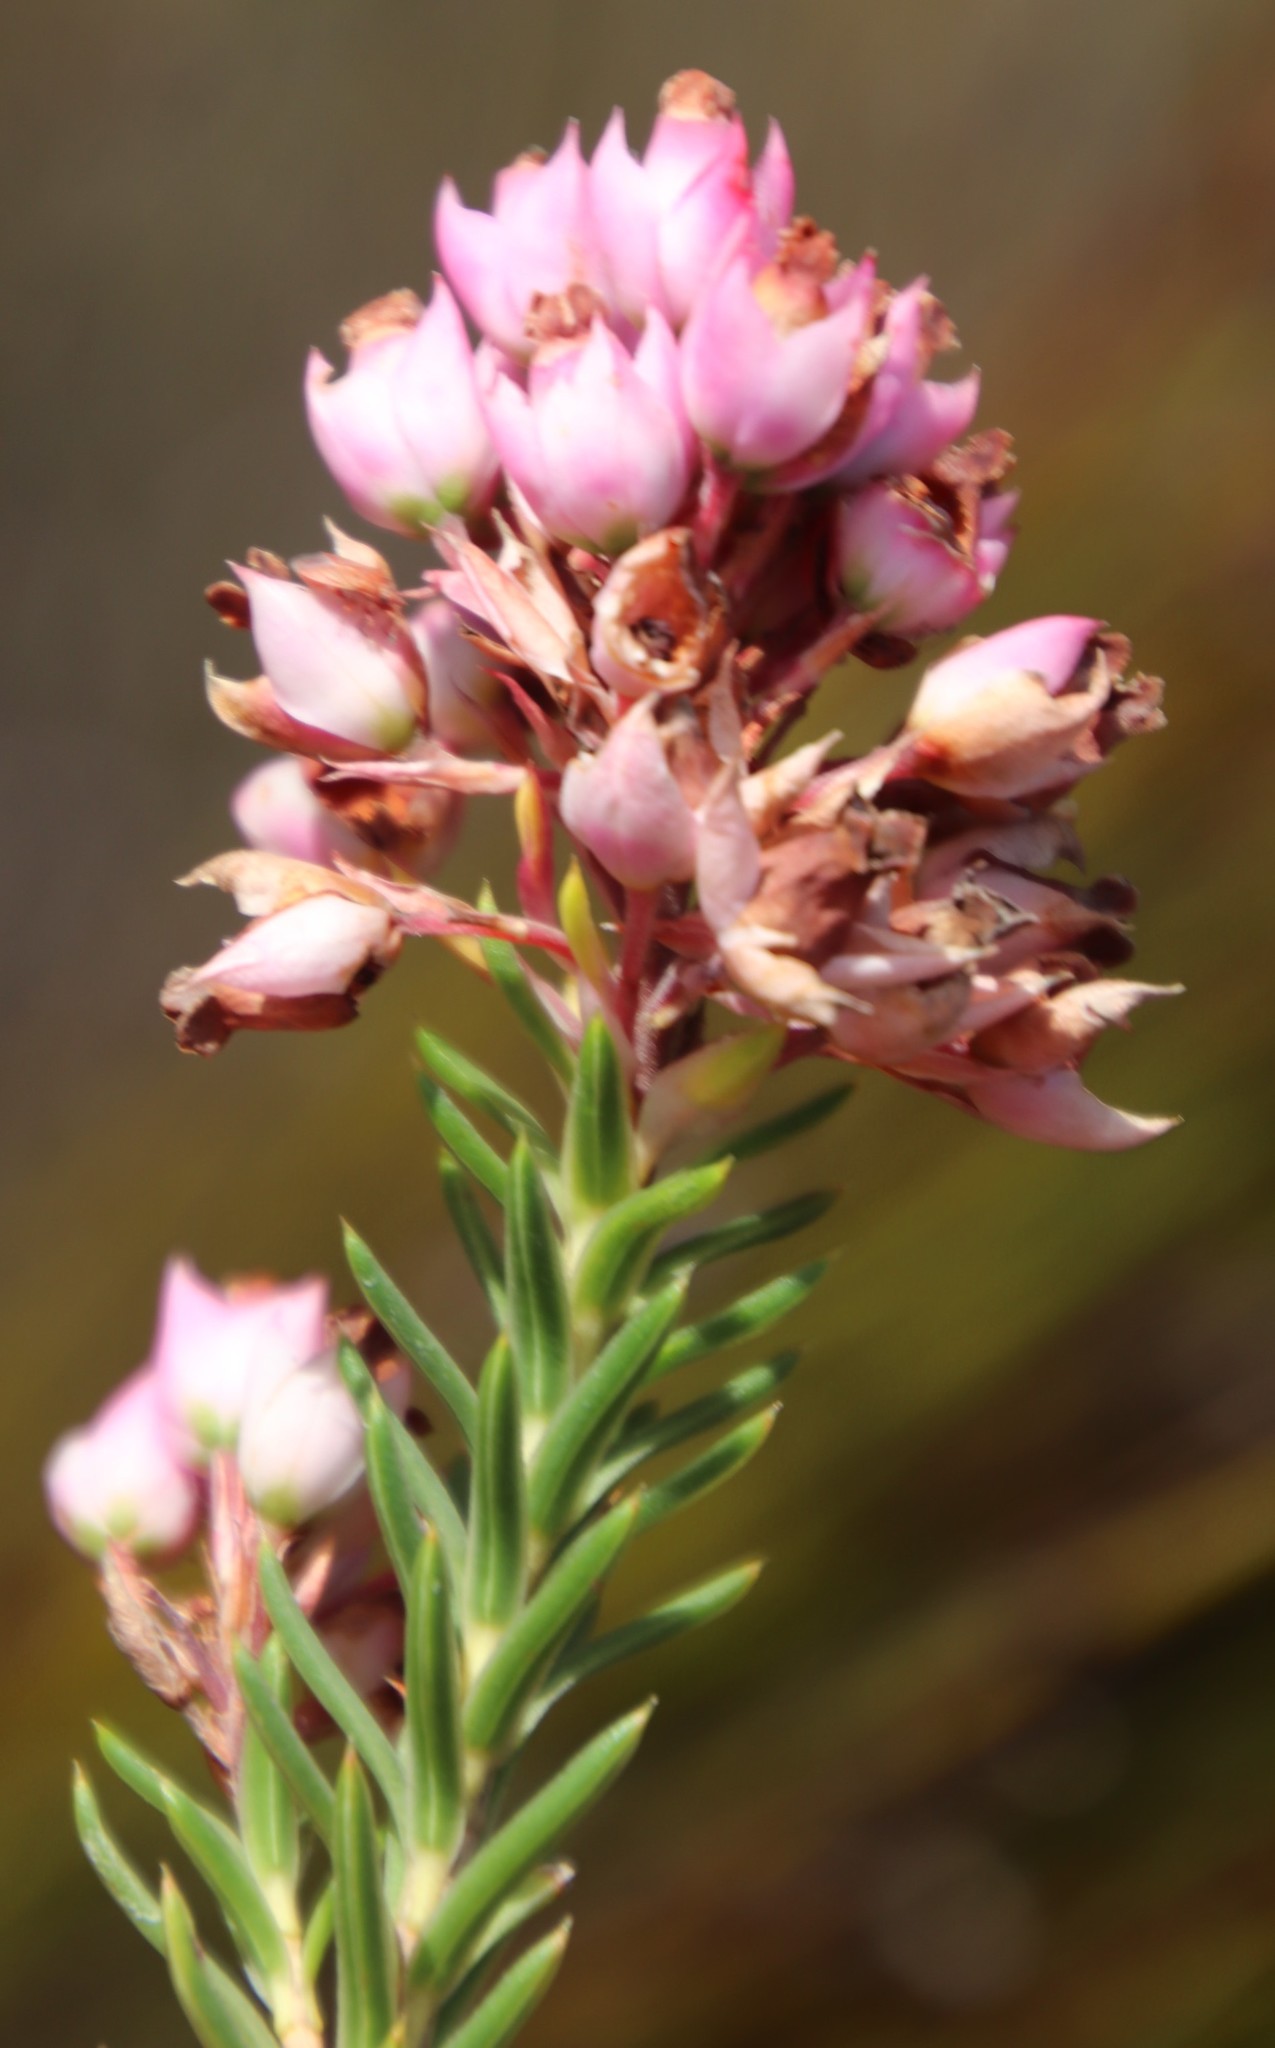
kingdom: Plantae
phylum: Tracheophyta
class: Magnoliopsida
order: Ericales
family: Ericaceae
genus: Erica
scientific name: Erica taxifolia
